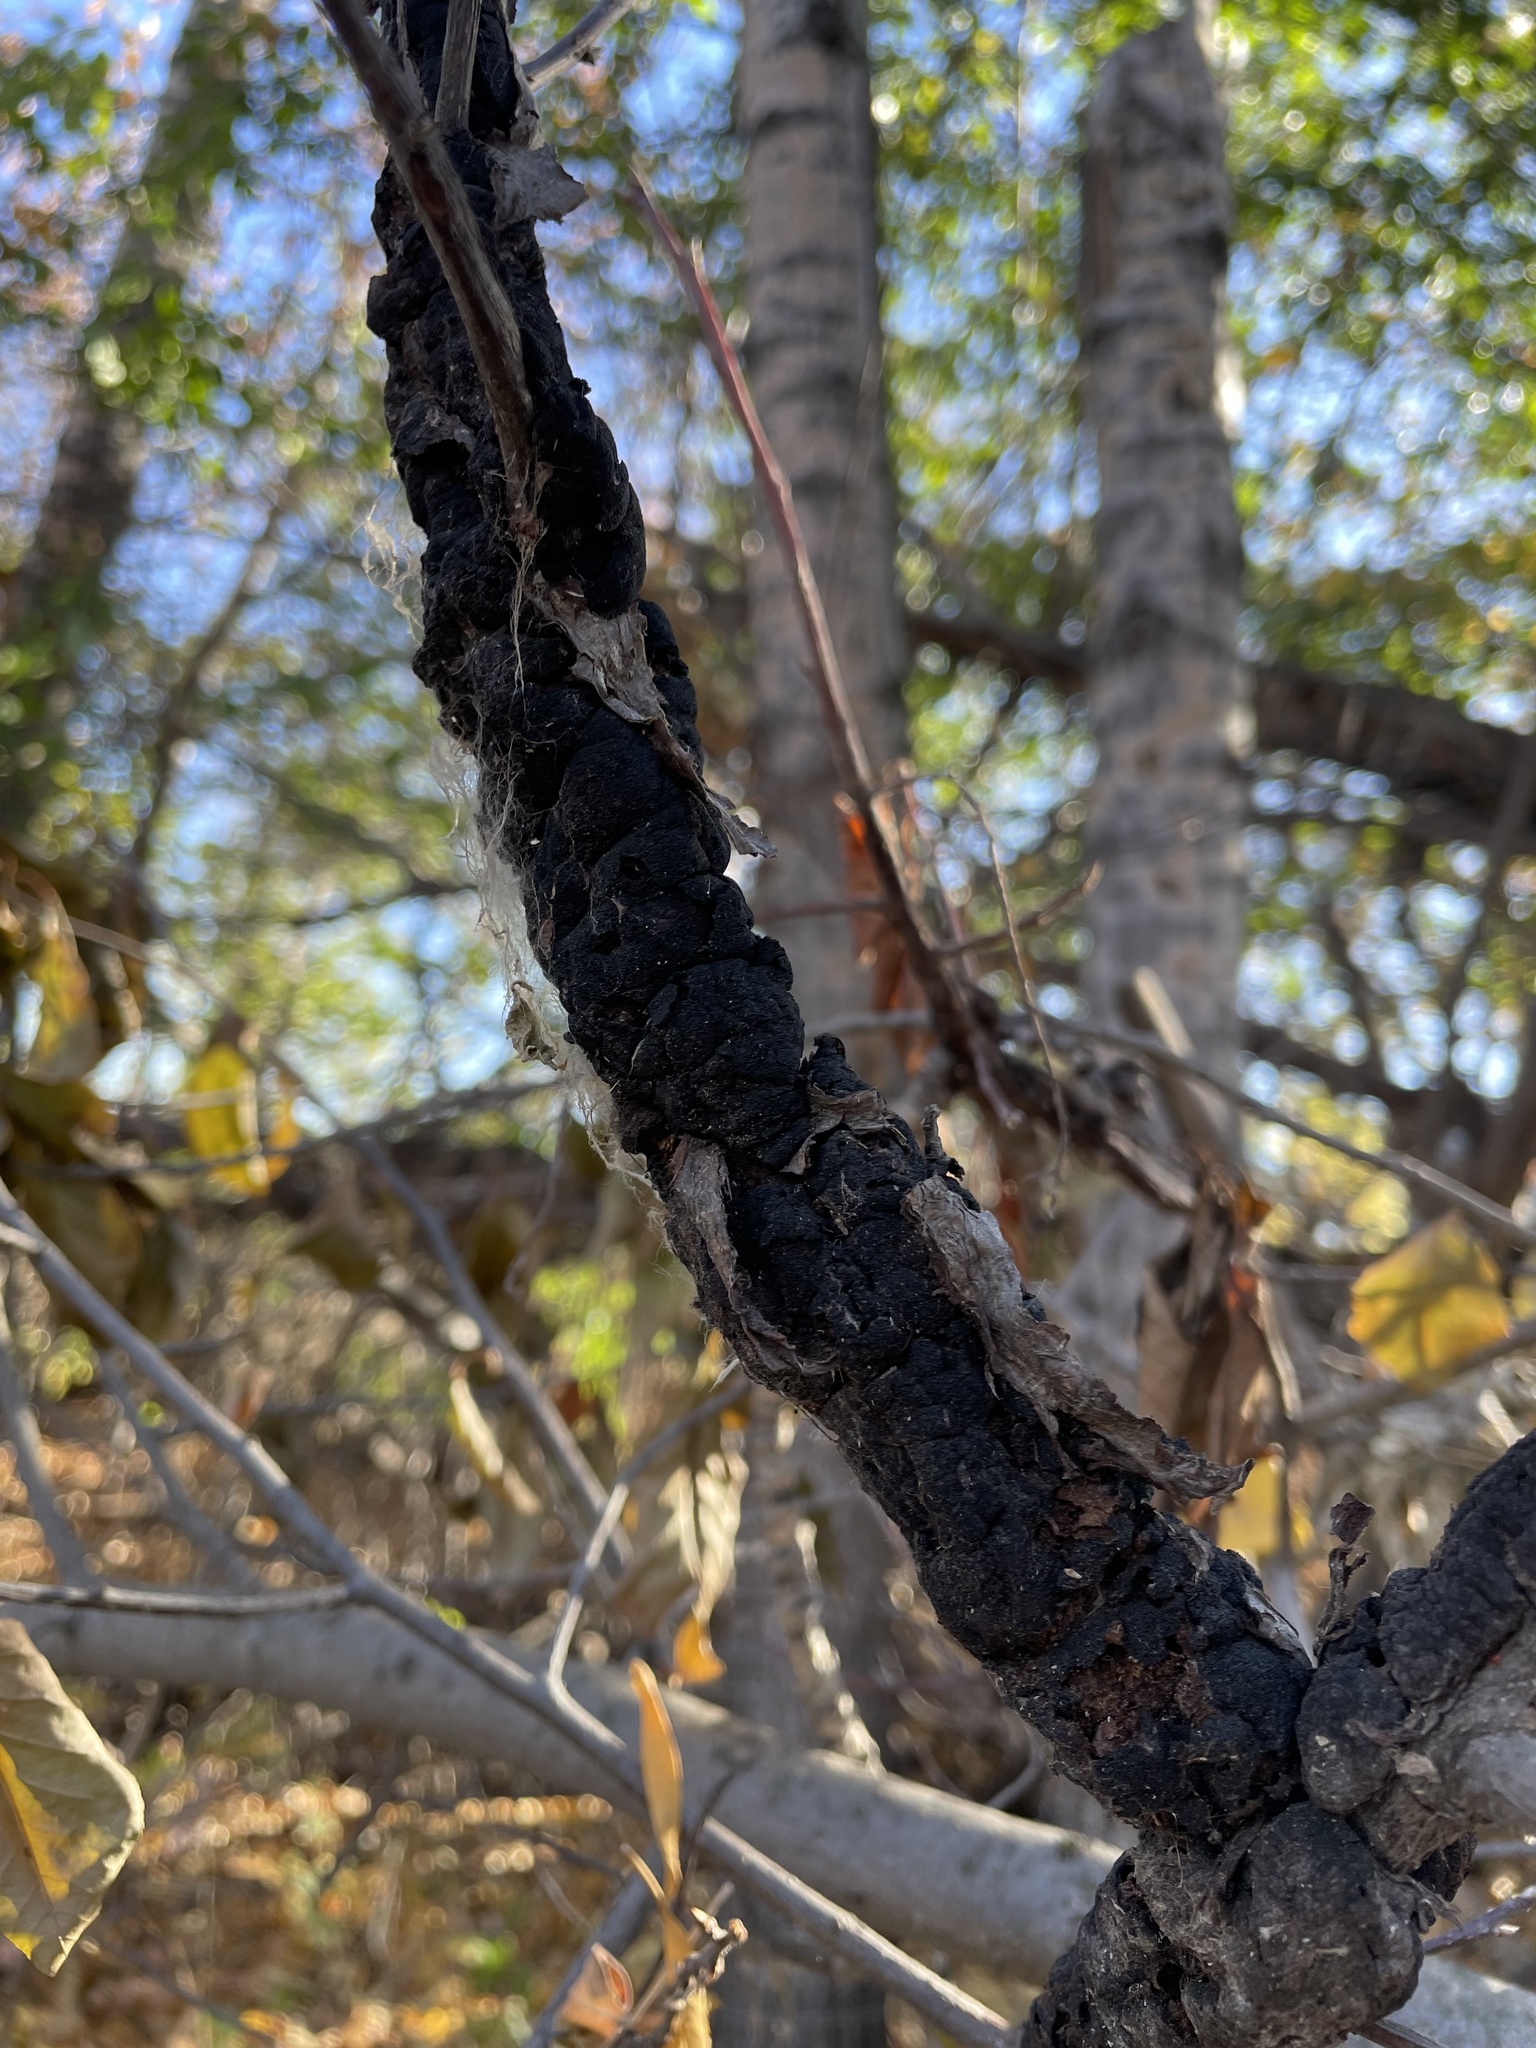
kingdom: Fungi
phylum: Ascomycota
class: Dothideomycetes
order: Venturiales
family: Venturiaceae
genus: Apiosporina
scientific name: Apiosporina morbosa
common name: Black knot
